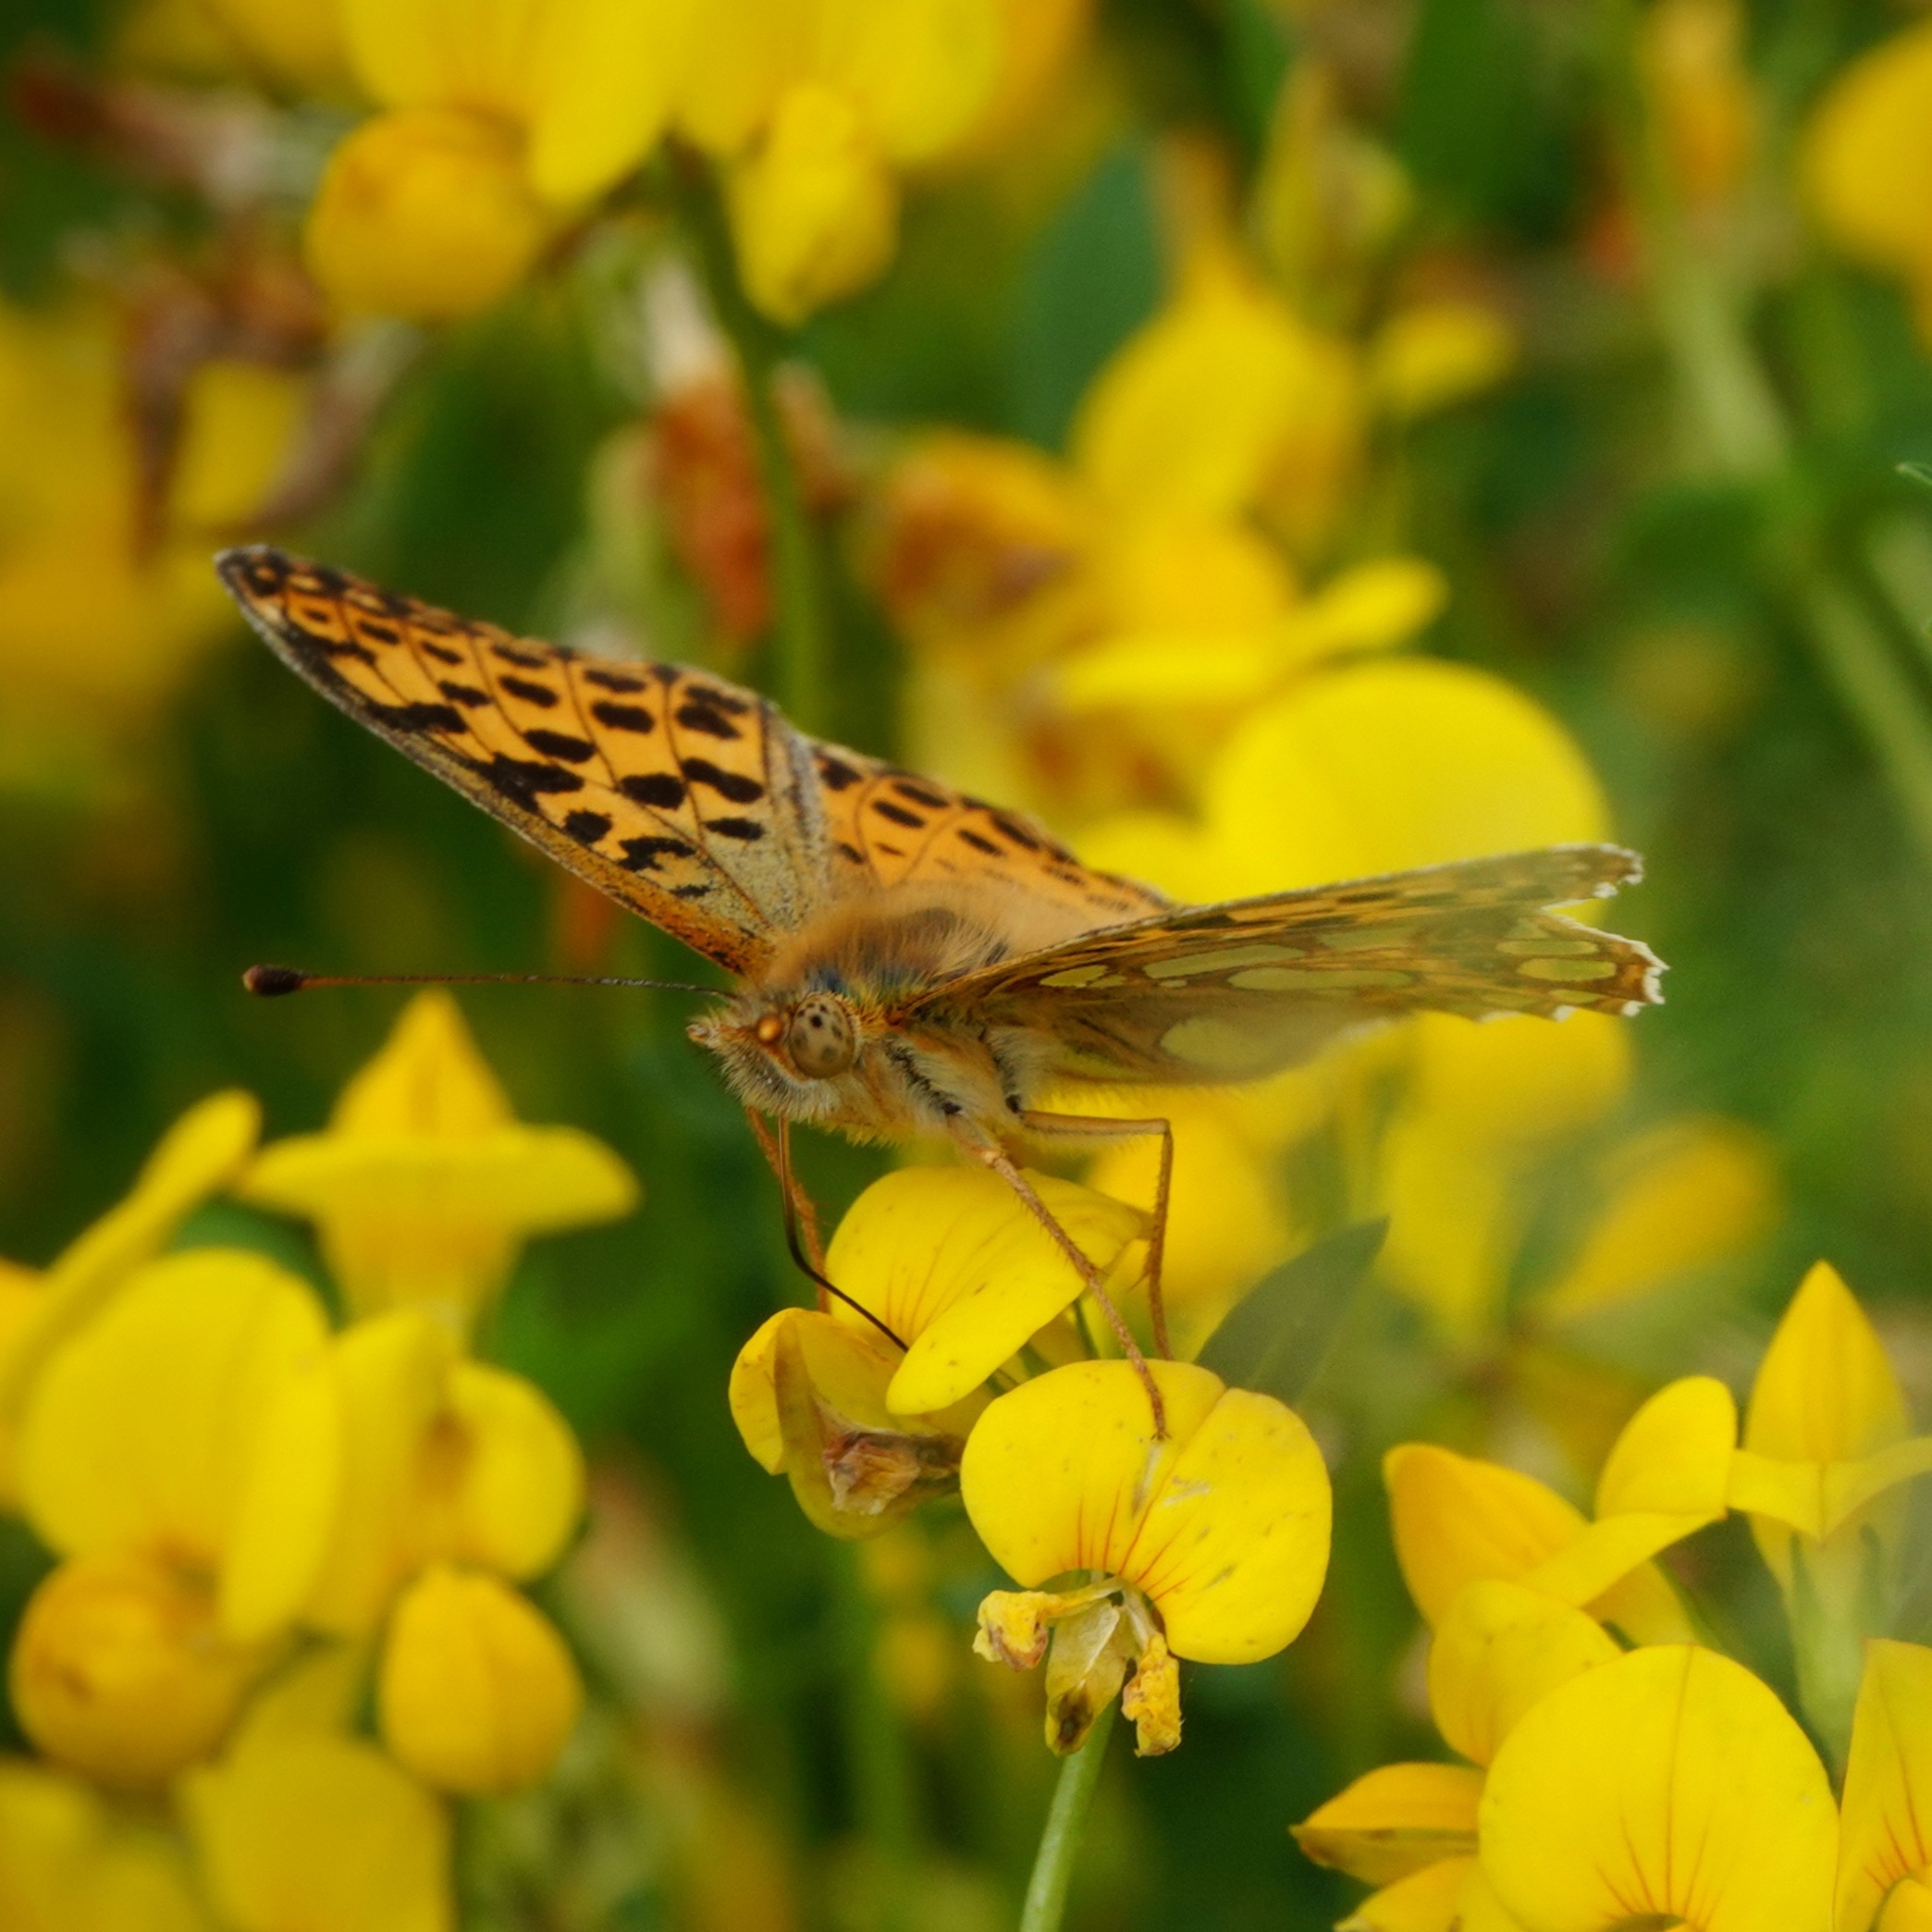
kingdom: Animalia
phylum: Arthropoda
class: Insecta
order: Lepidoptera
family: Nymphalidae
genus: Issoria
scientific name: Issoria lathonia
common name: Queen of spain fritillary
